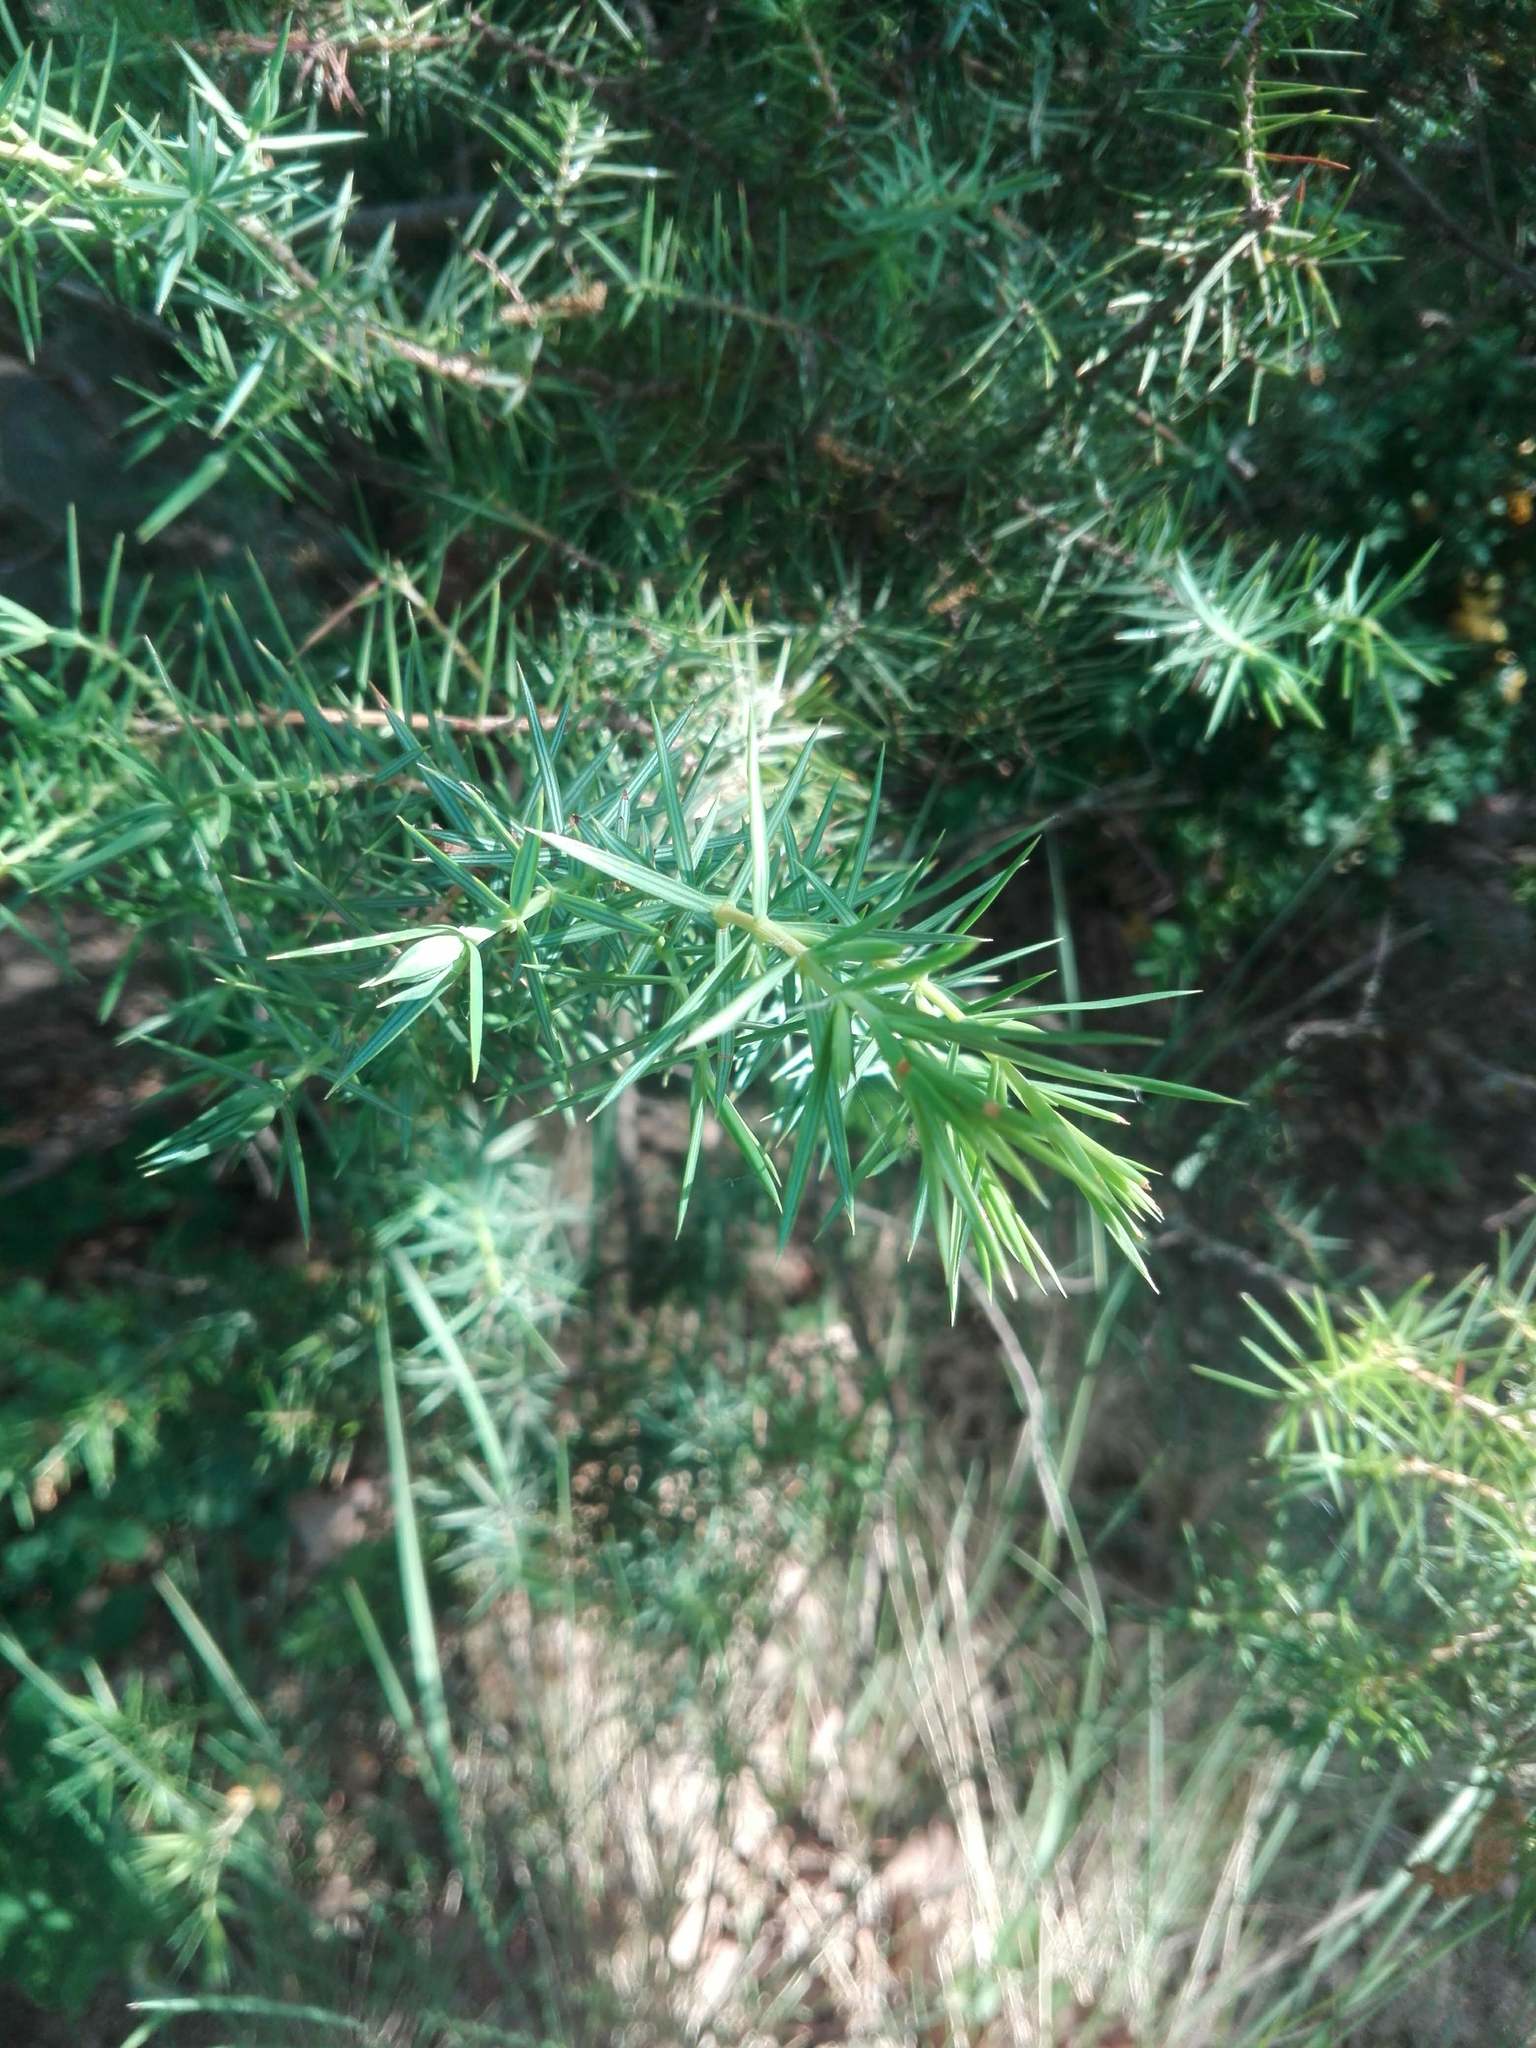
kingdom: Plantae
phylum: Tracheophyta
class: Pinopsida
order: Pinales
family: Cupressaceae
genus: Juniperus
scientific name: Juniperus oxycedrus
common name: Prickly juniper
